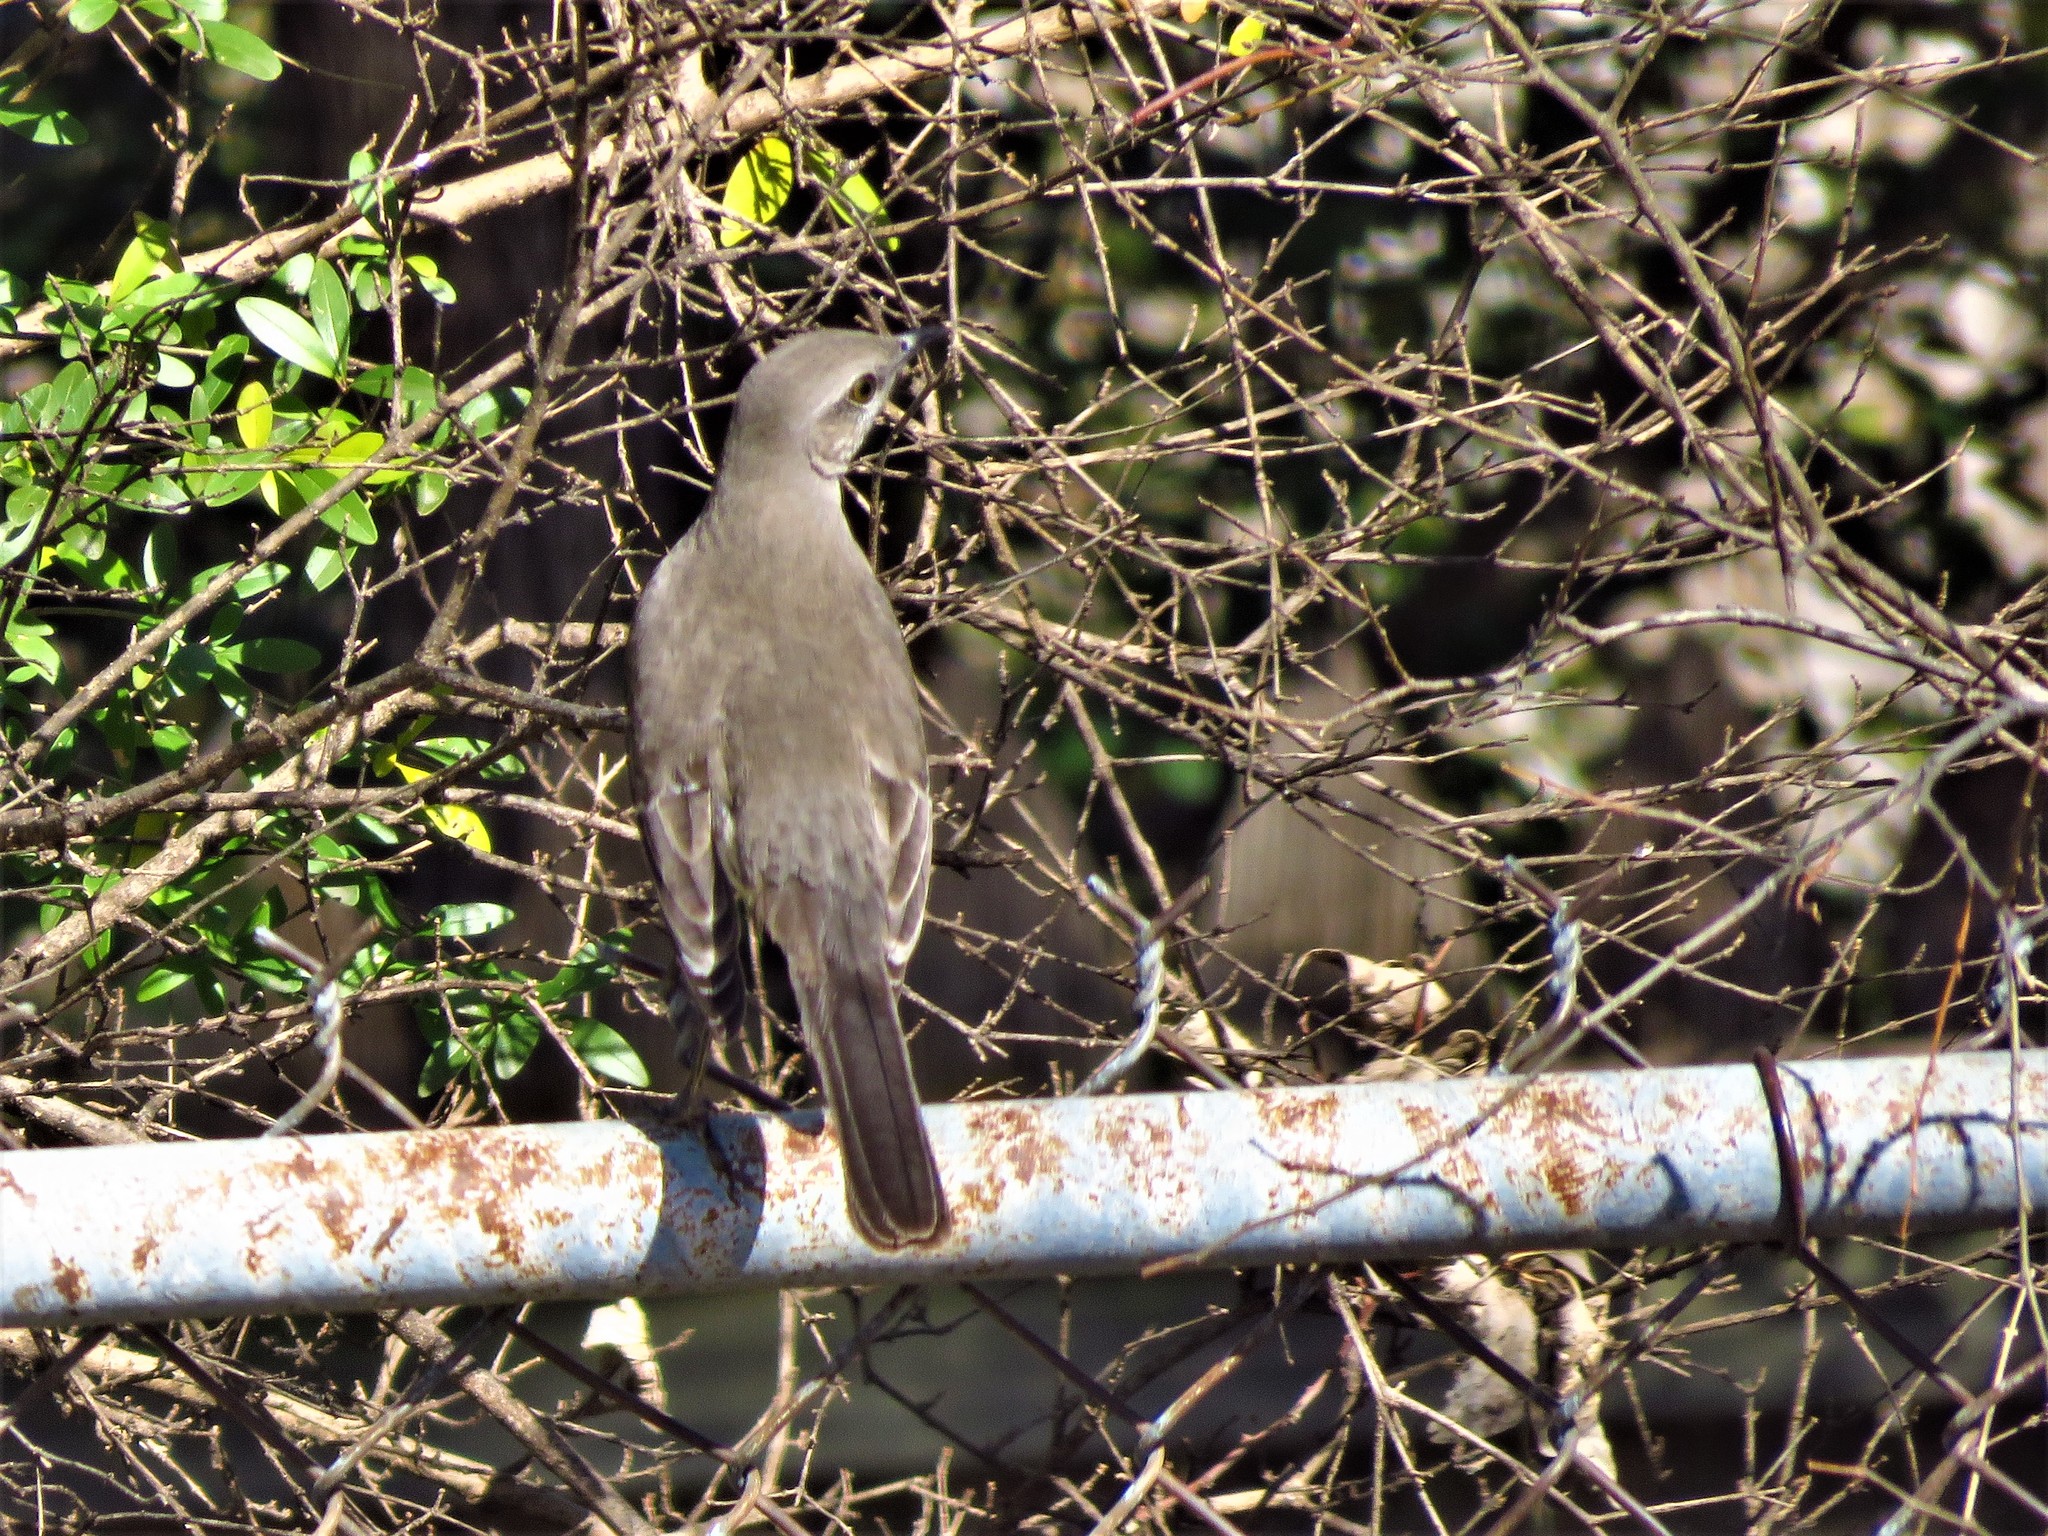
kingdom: Animalia
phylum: Chordata
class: Aves
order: Passeriformes
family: Mimidae
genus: Mimus
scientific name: Mimus polyglottos
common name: Northern mockingbird
